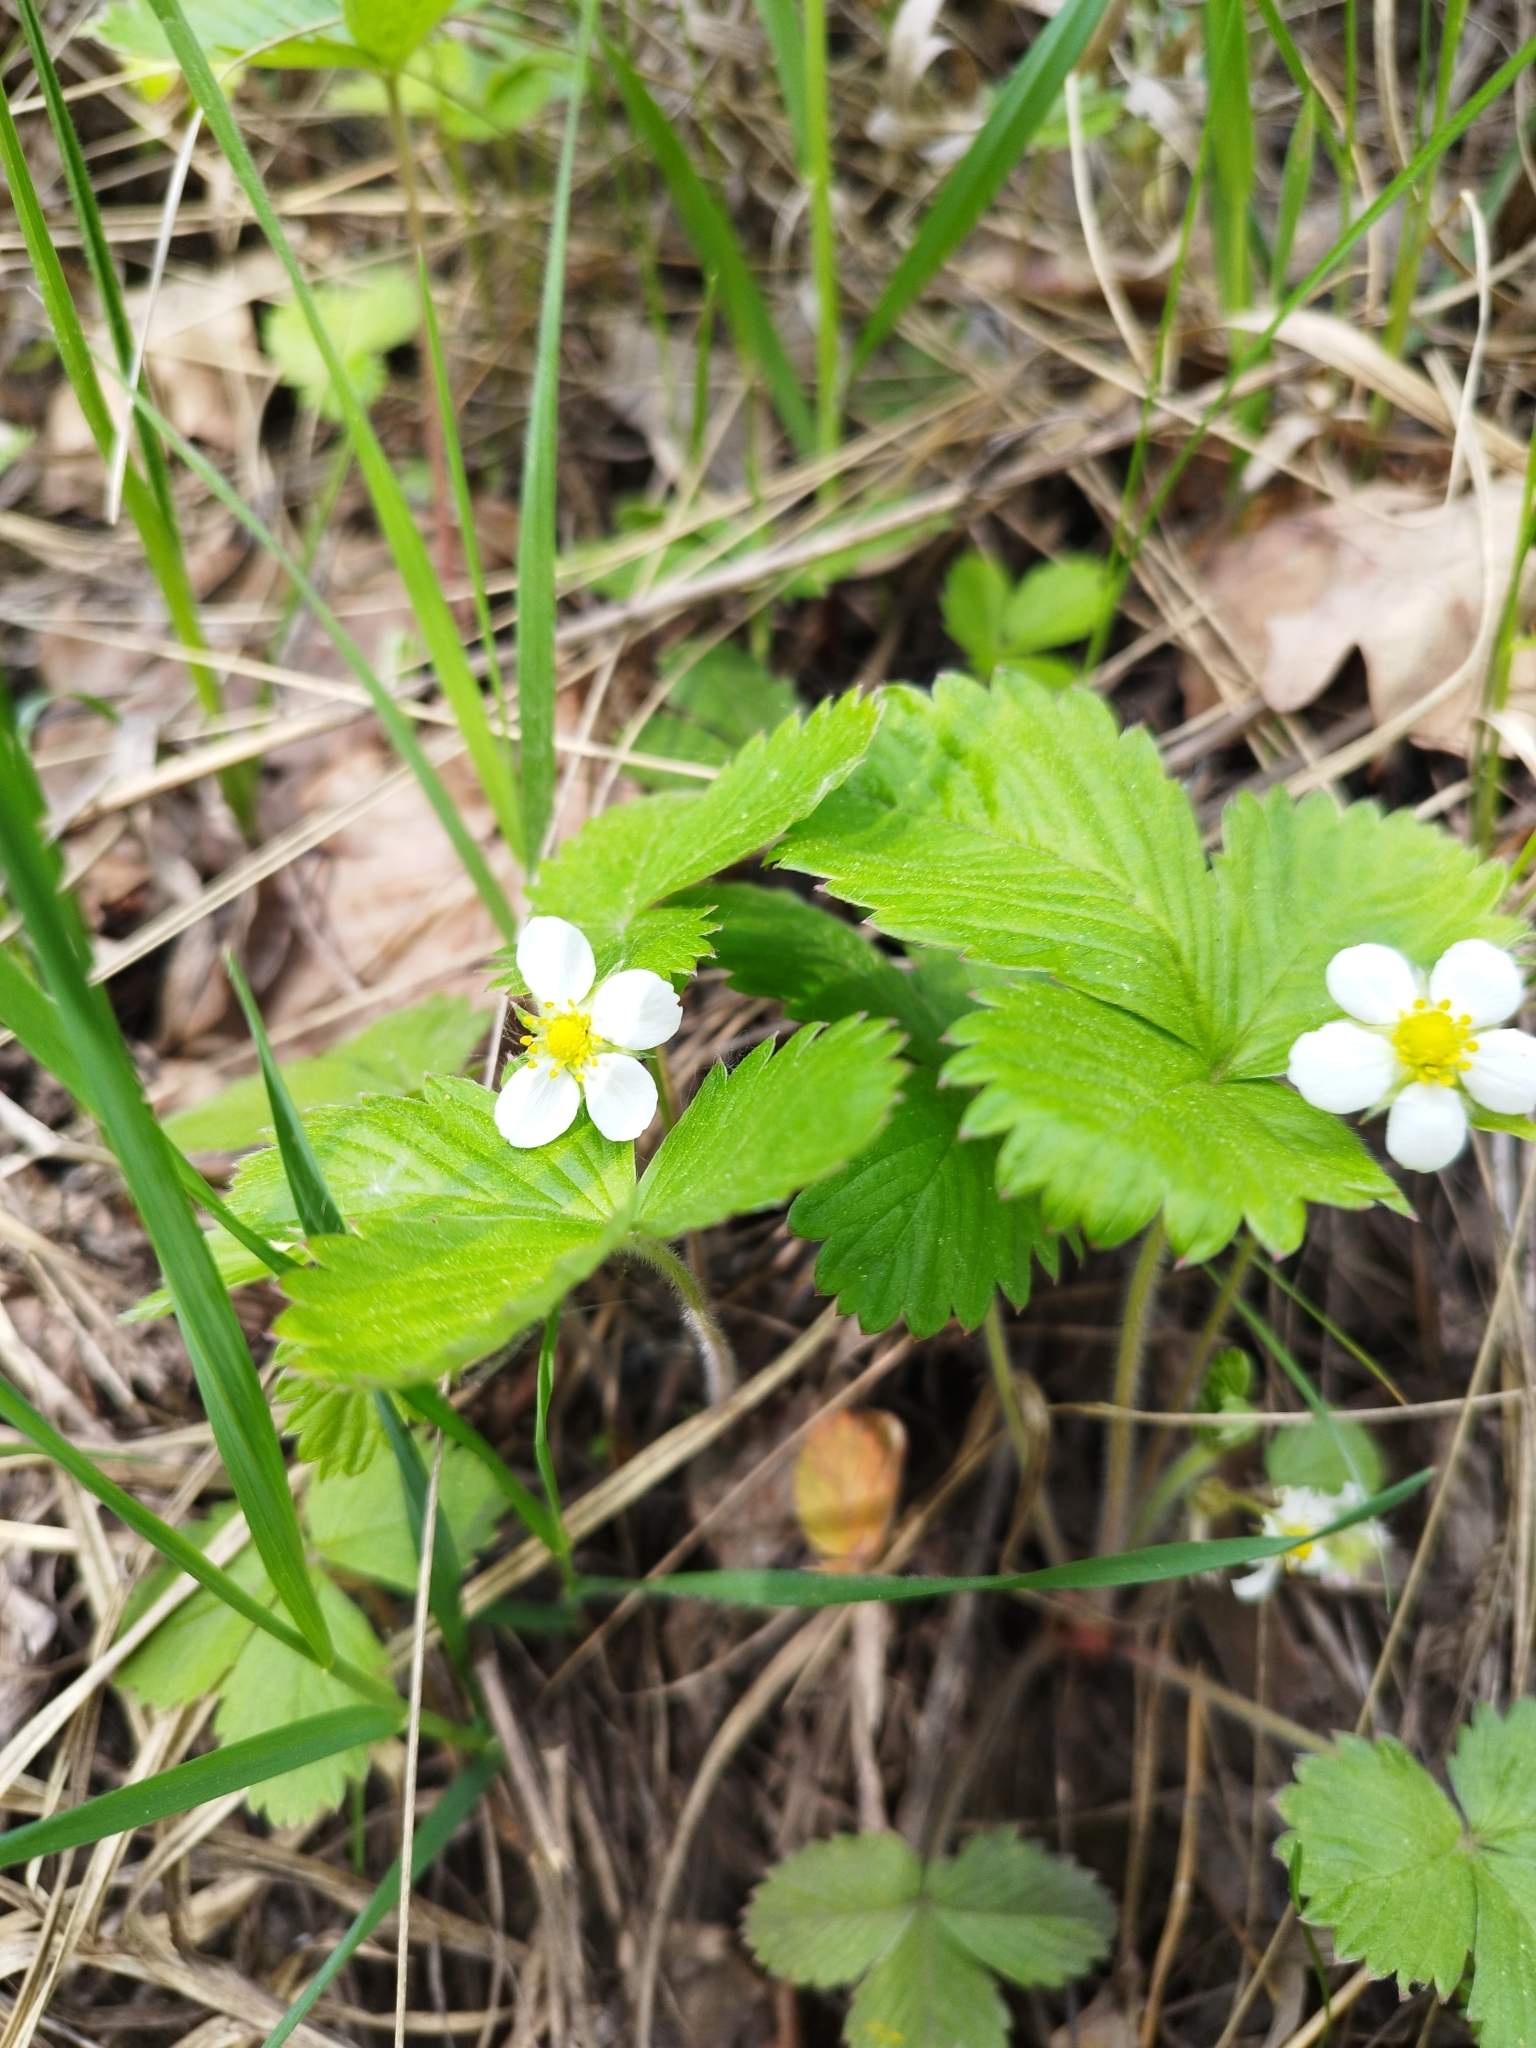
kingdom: Plantae
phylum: Tracheophyta
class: Magnoliopsida
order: Rosales
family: Rosaceae
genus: Fragaria
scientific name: Fragaria vesca
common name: Wild strawberry
